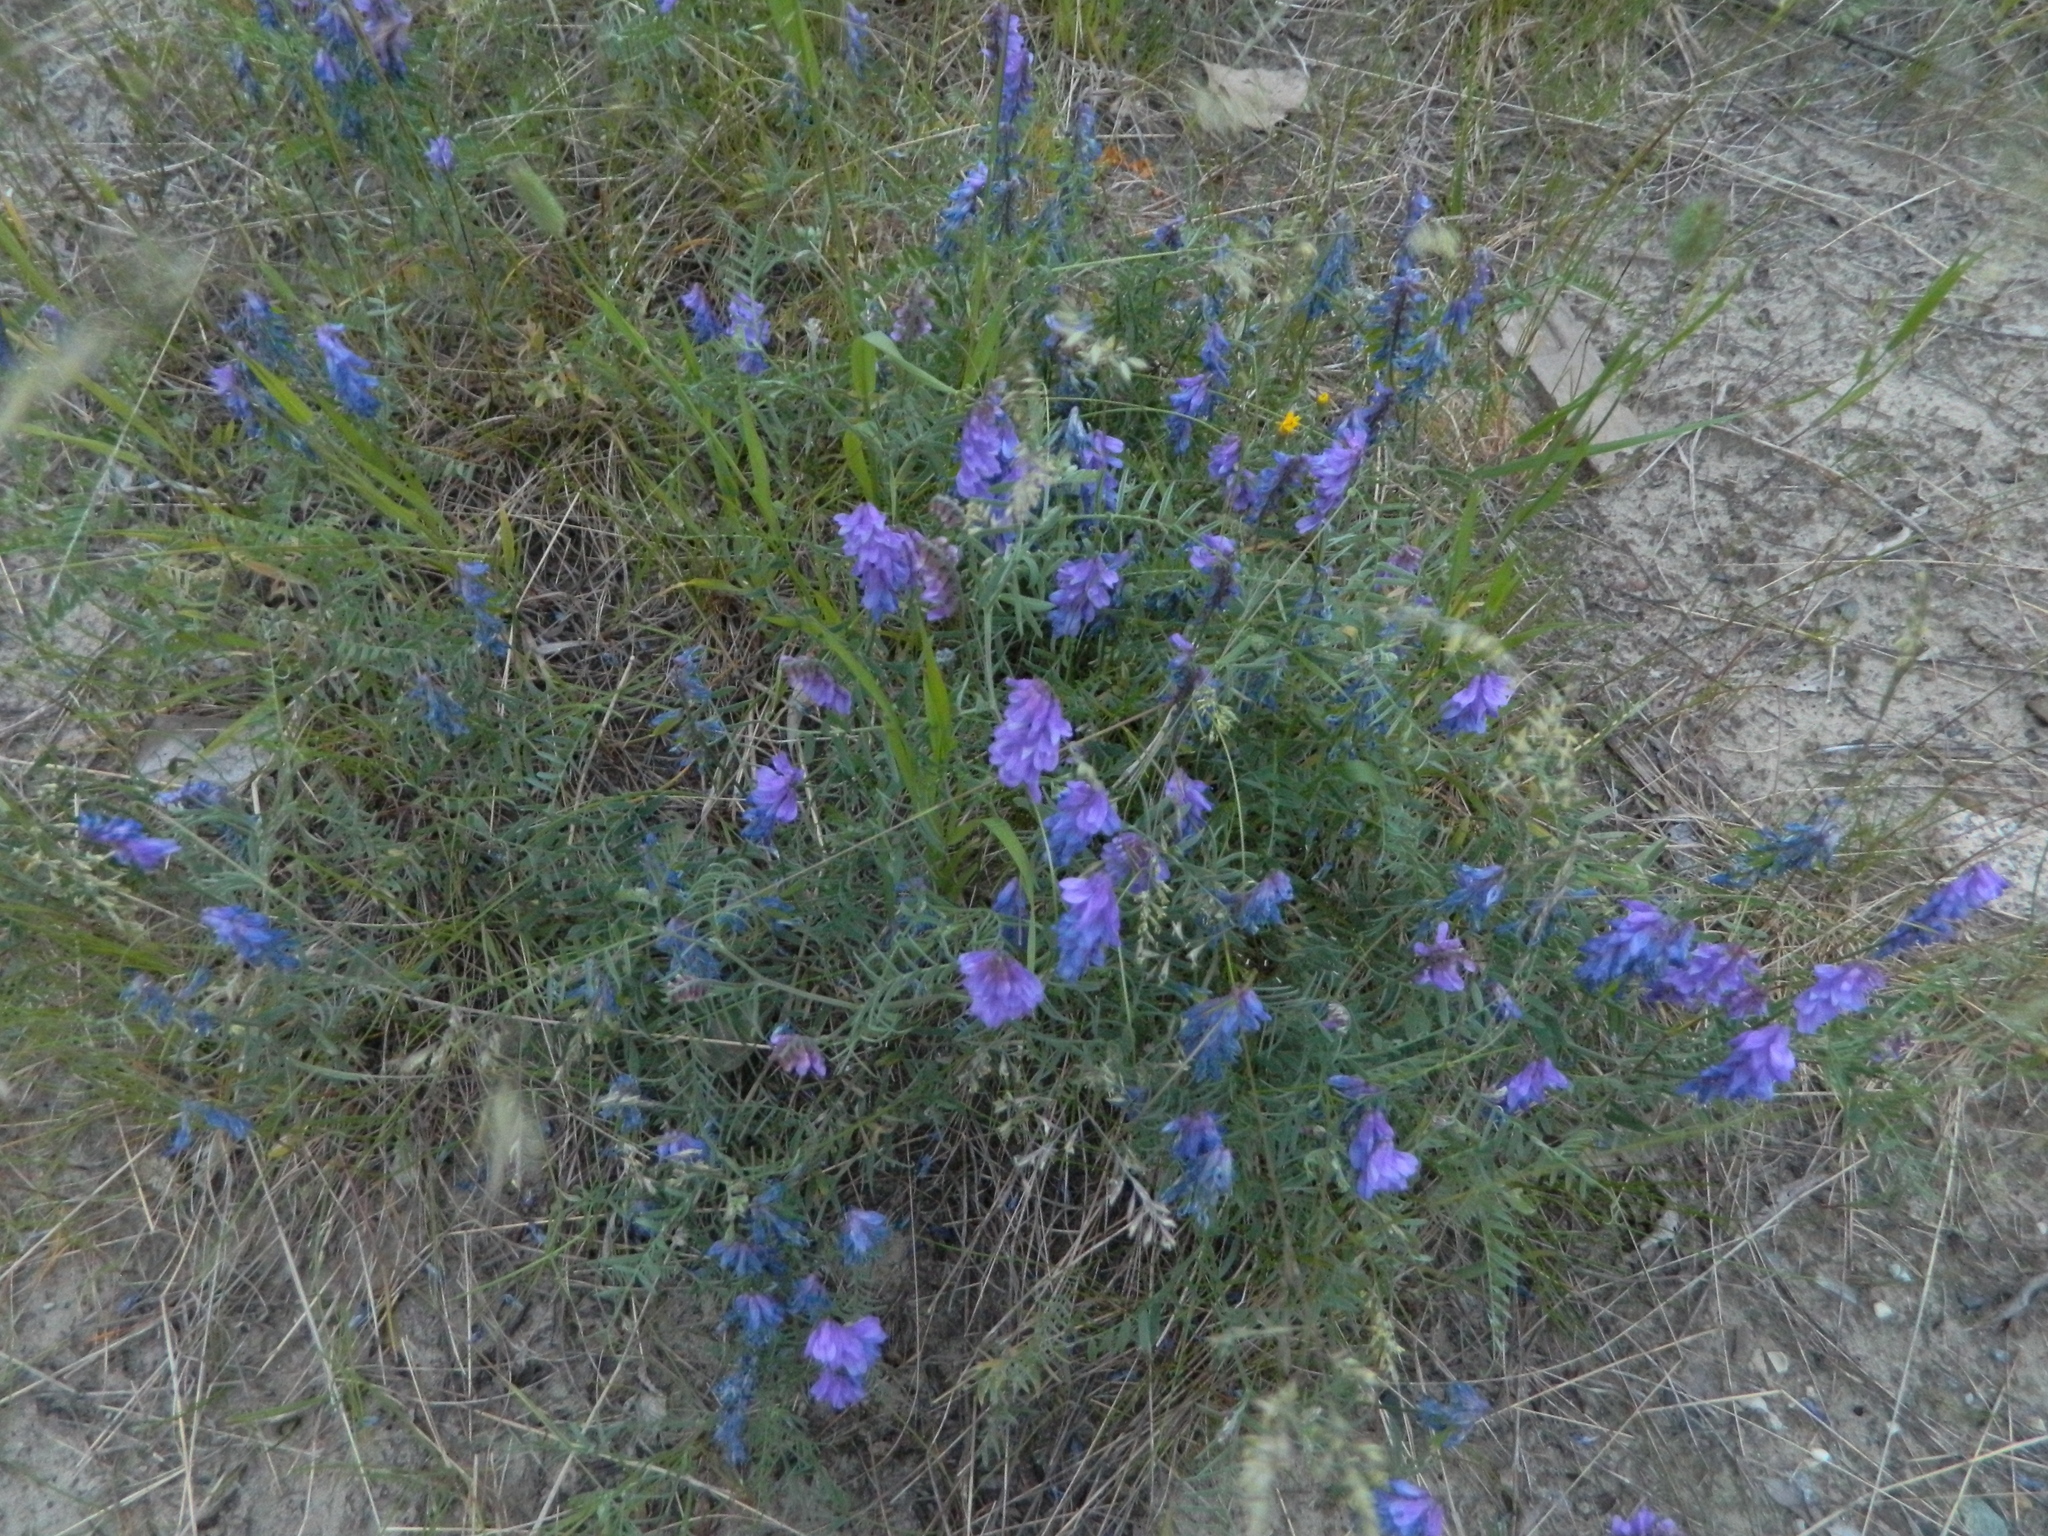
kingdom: Plantae
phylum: Tracheophyta
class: Magnoliopsida
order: Fabales
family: Fabaceae
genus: Vicia
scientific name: Vicia cracca
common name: Bird vetch
